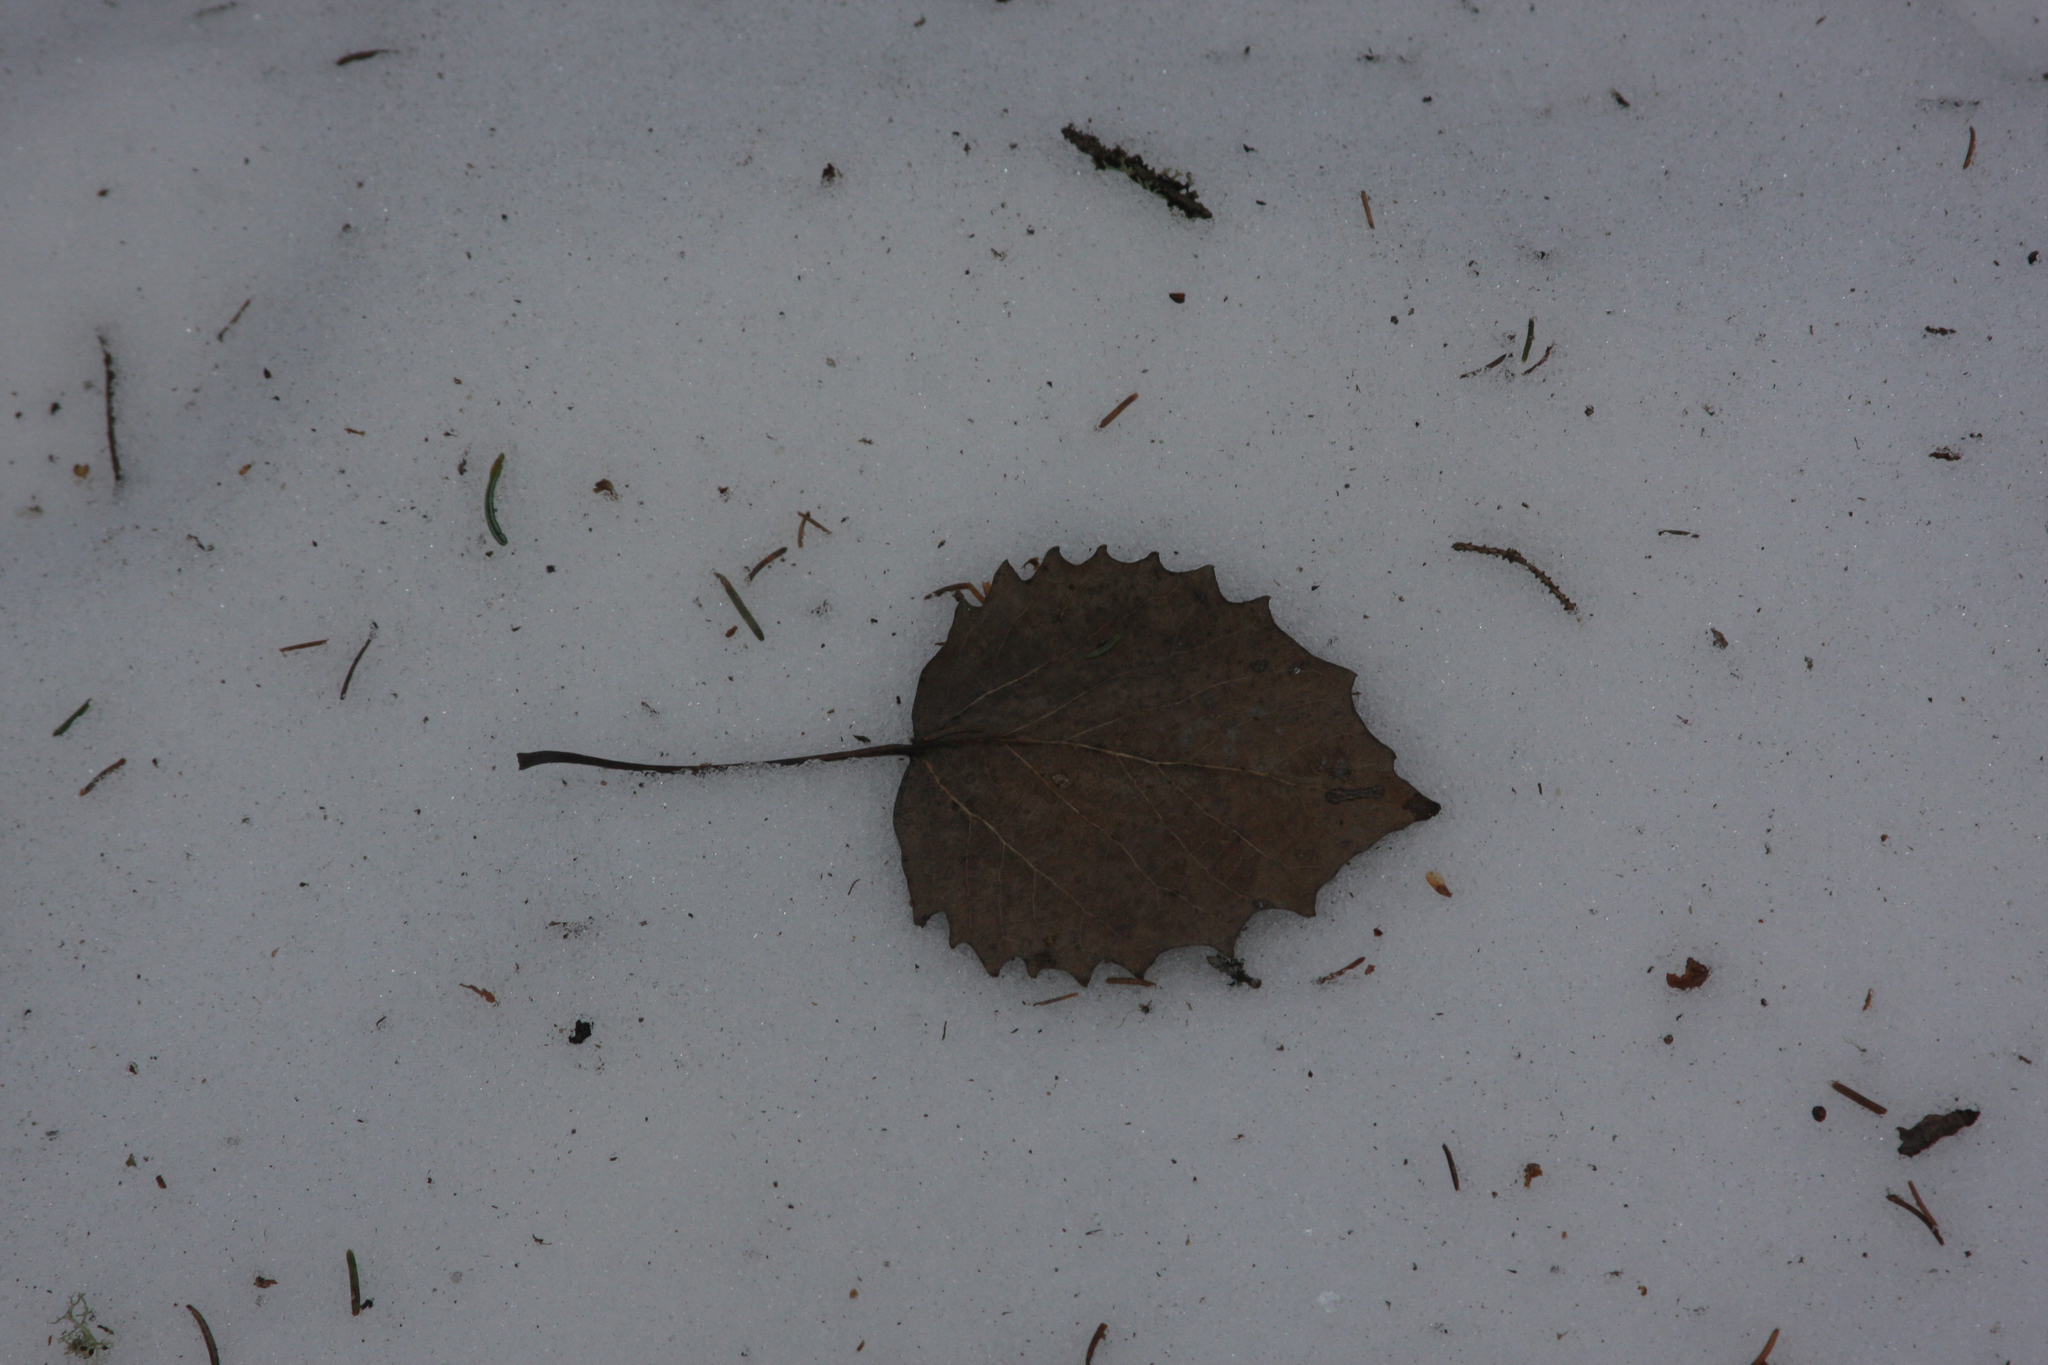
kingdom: Plantae
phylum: Tracheophyta
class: Magnoliopsida
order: Malpighiales
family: Salicaceae
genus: Populus
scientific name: Populus grandidentata
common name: Bigtooth aspen
